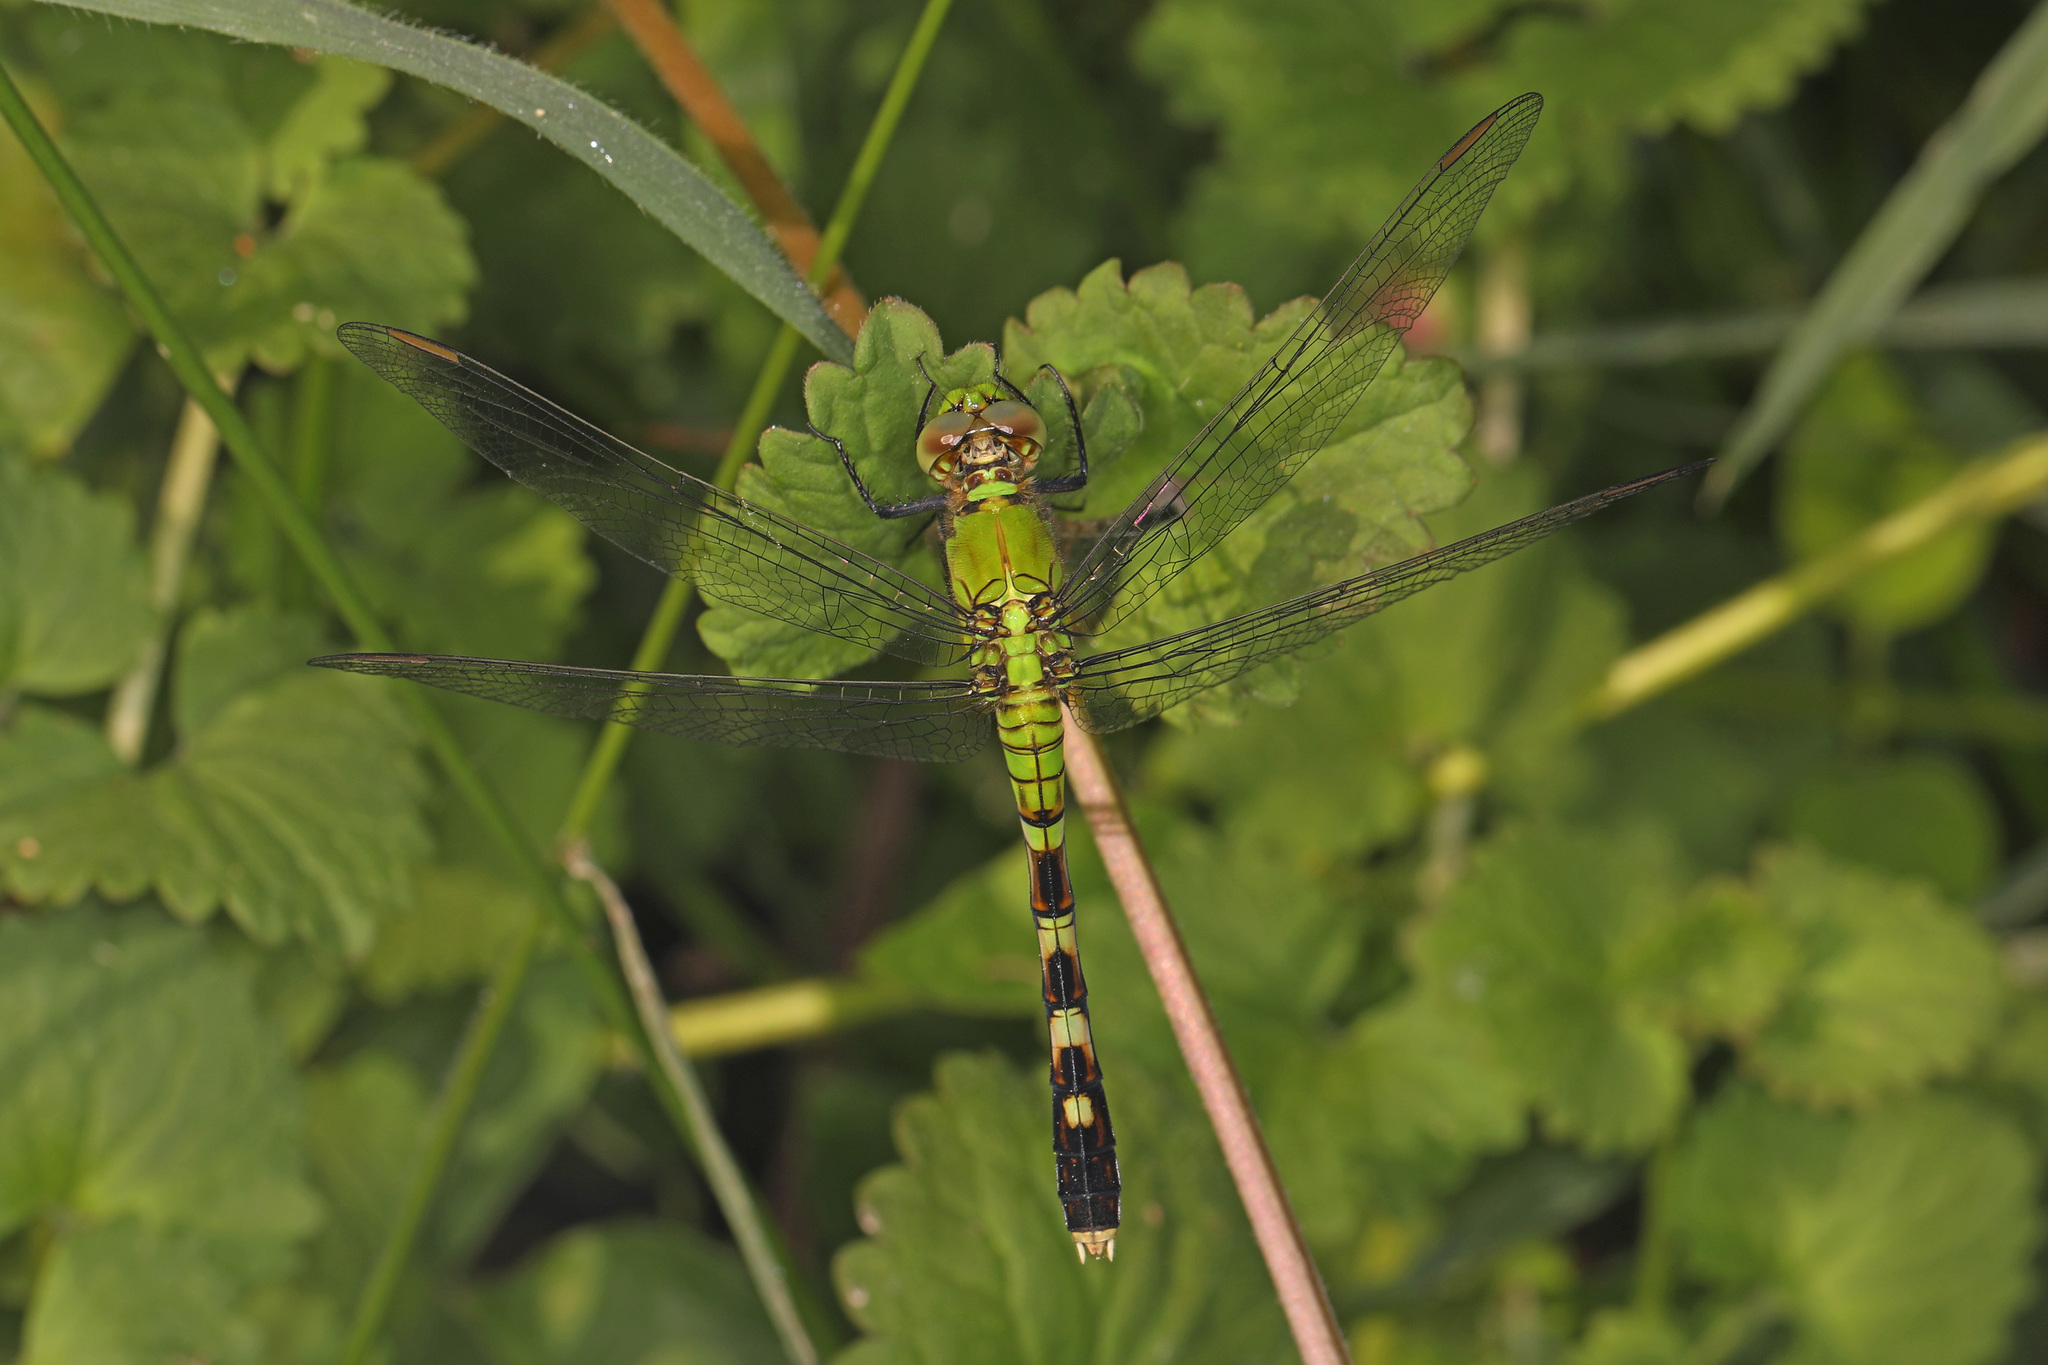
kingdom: Animalia
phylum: Arthropoda
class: Insecta
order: Odonata
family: Libellulidae
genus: Erythemis
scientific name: Erythemis simplicicollis
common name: Eastern pondhawk
